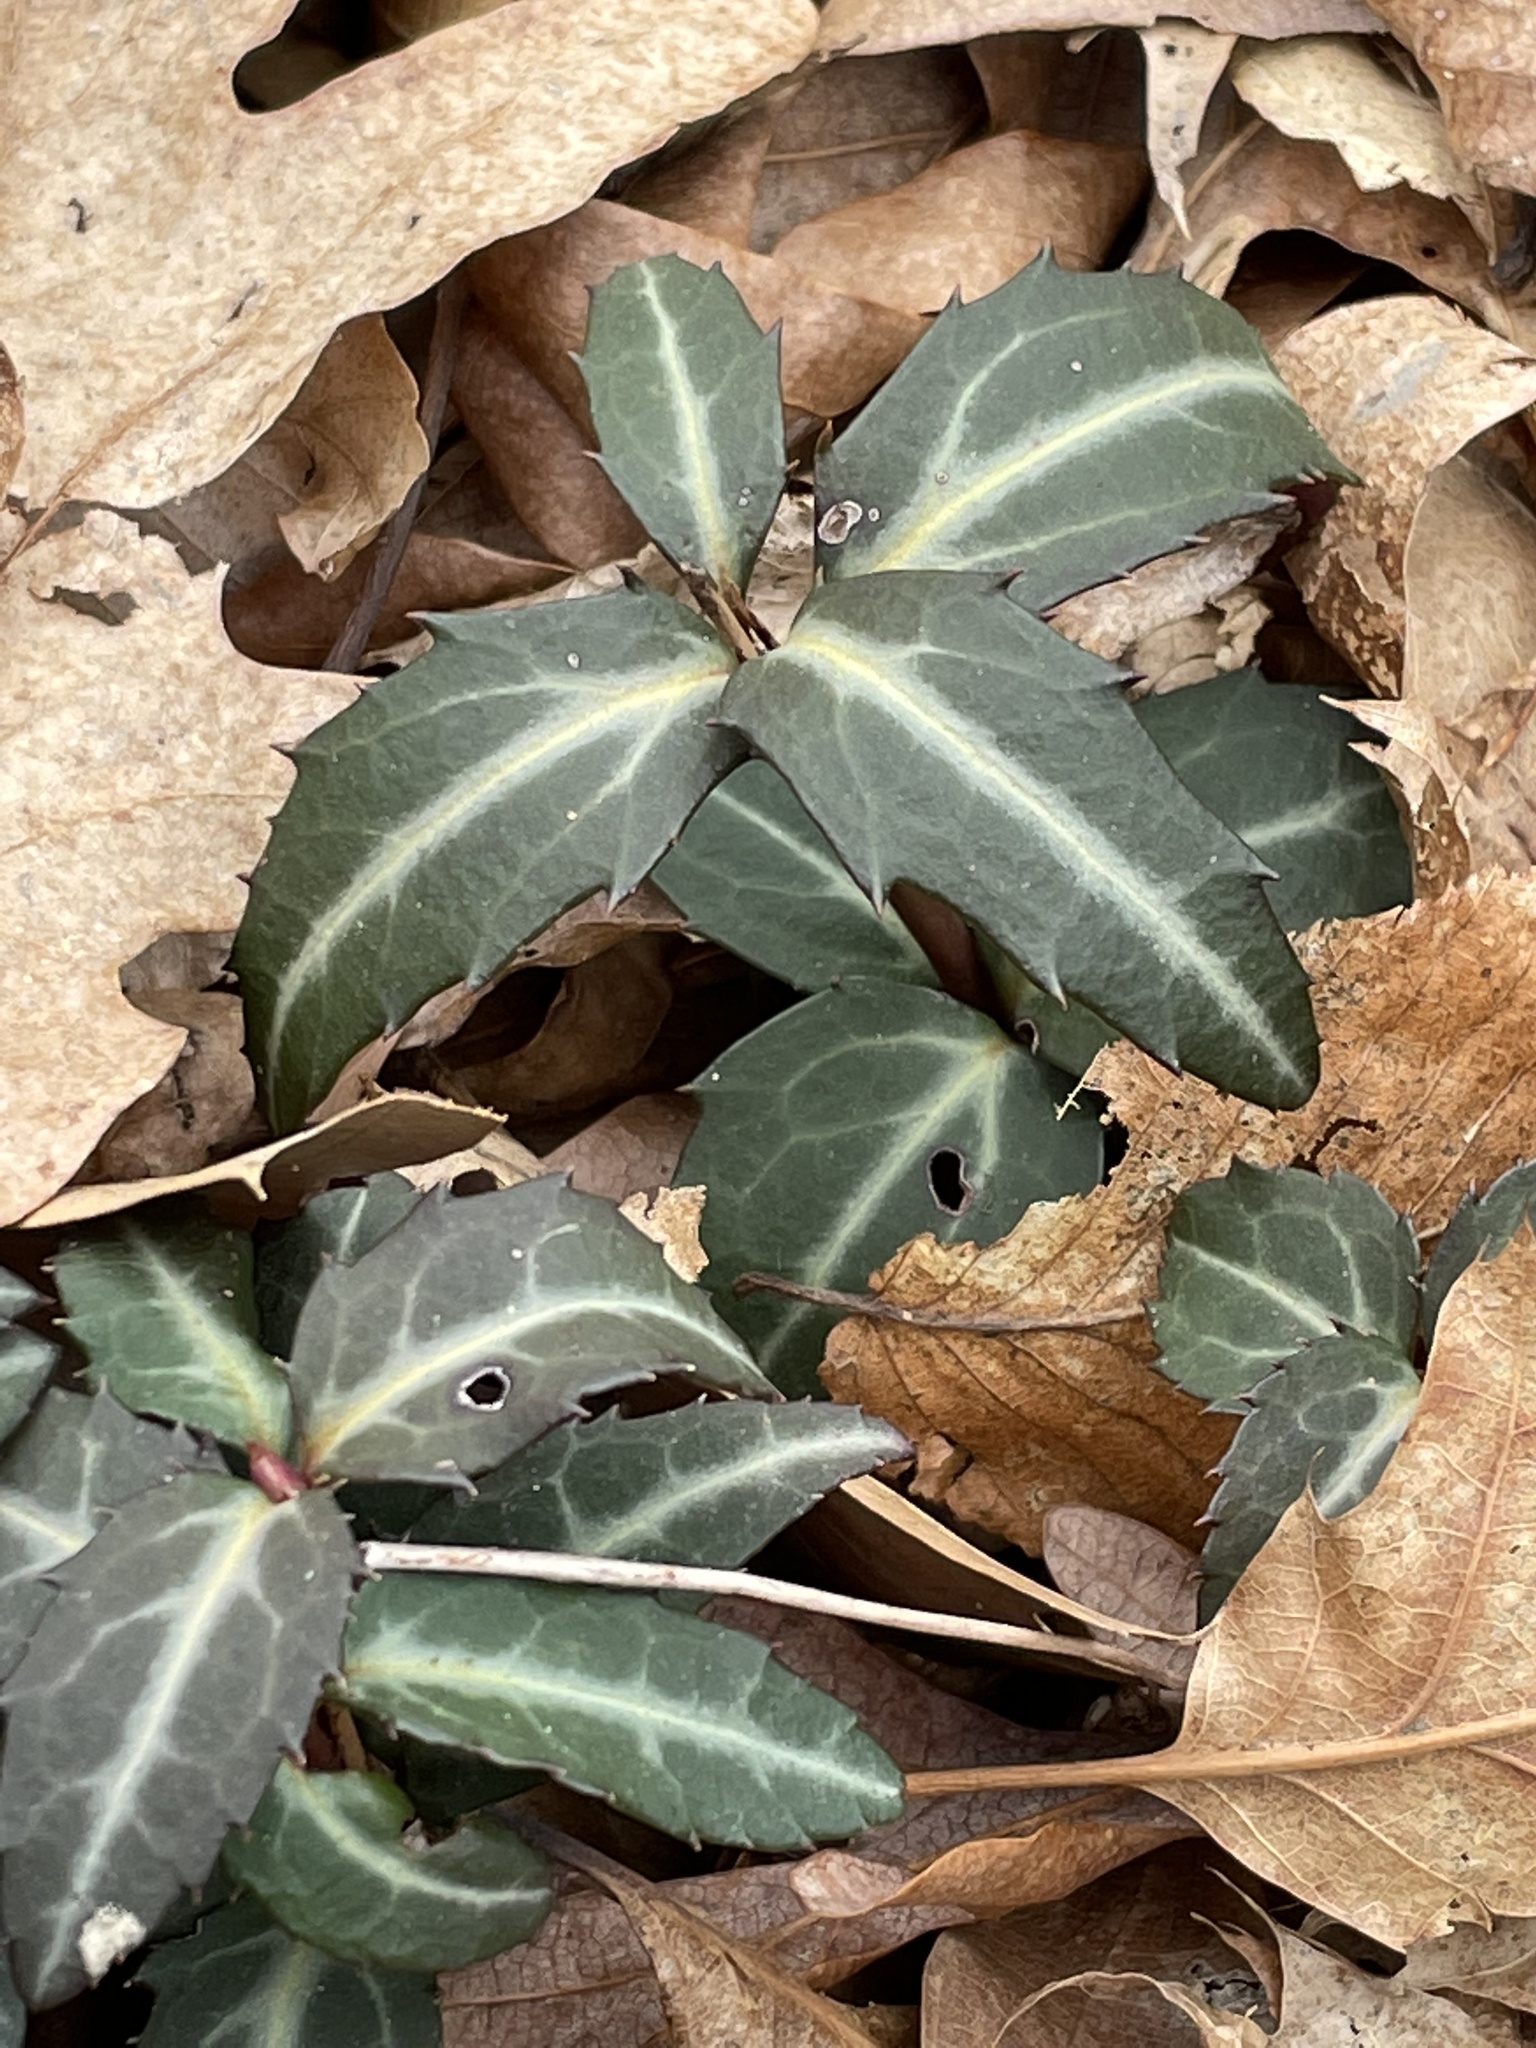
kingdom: Plantae
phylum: Tracheophyta
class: Magnoliopsida
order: Ericales
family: Ericaceae
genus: Chimaphila
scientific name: Chimaphila maculata
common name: Spotted pipsissewa
